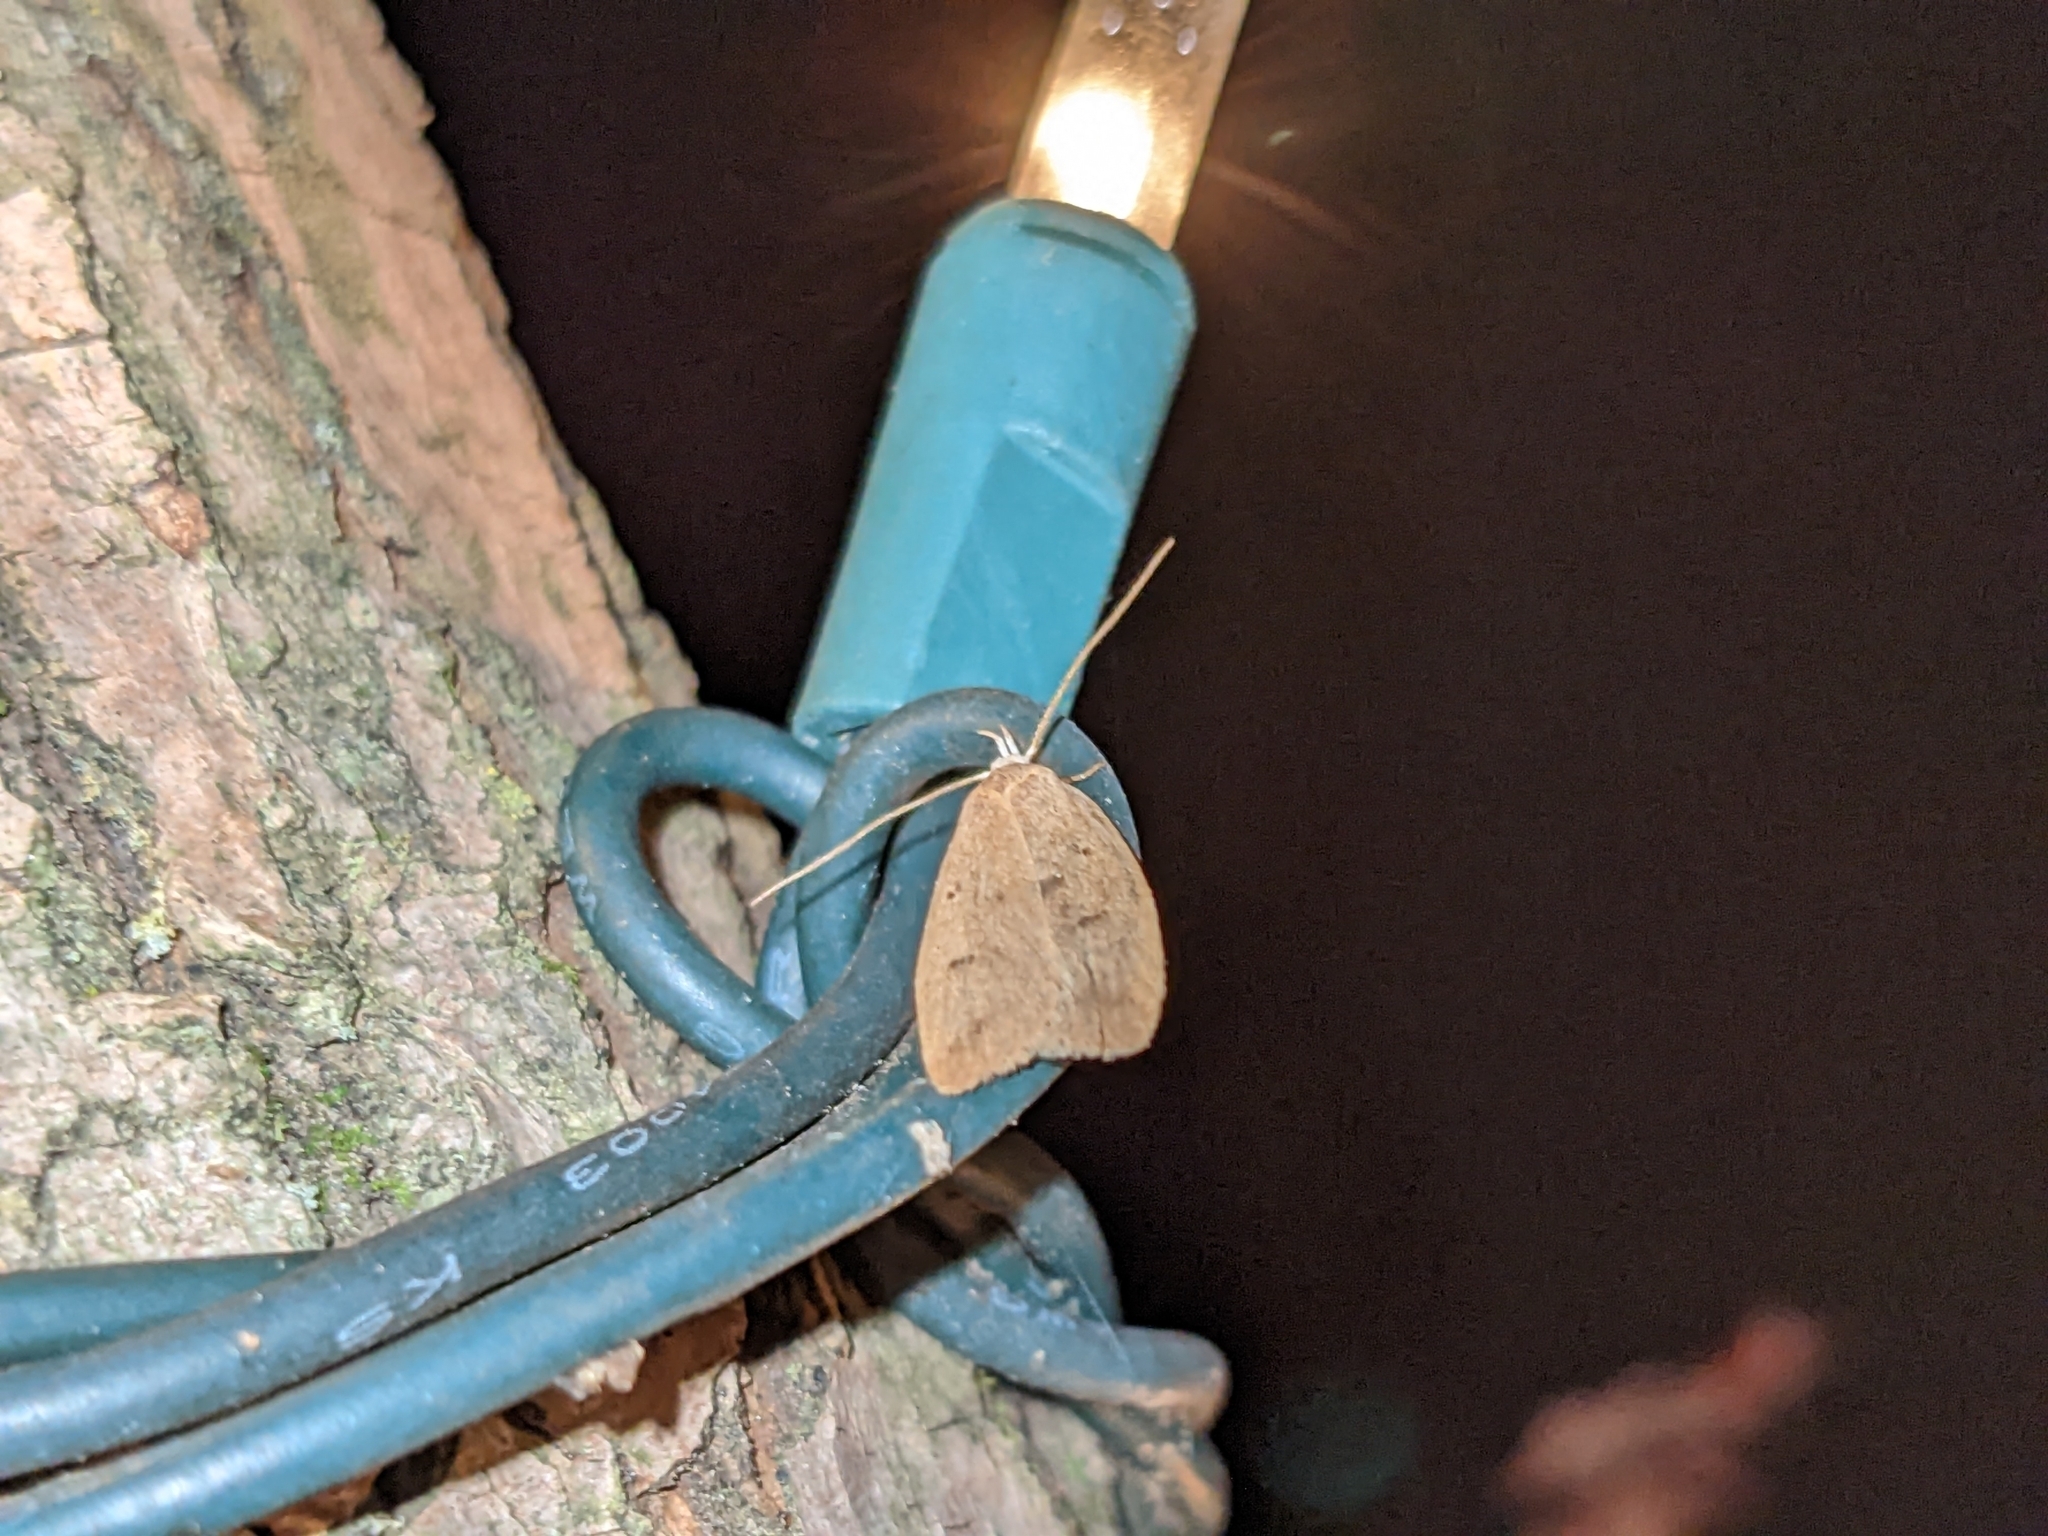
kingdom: Animalia
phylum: Arthropoda
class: Insecta
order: Lepidoptera
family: Peleopodidae
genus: Machimia
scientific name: Machimia tentoriferella
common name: Gold-striped leaftier moth
